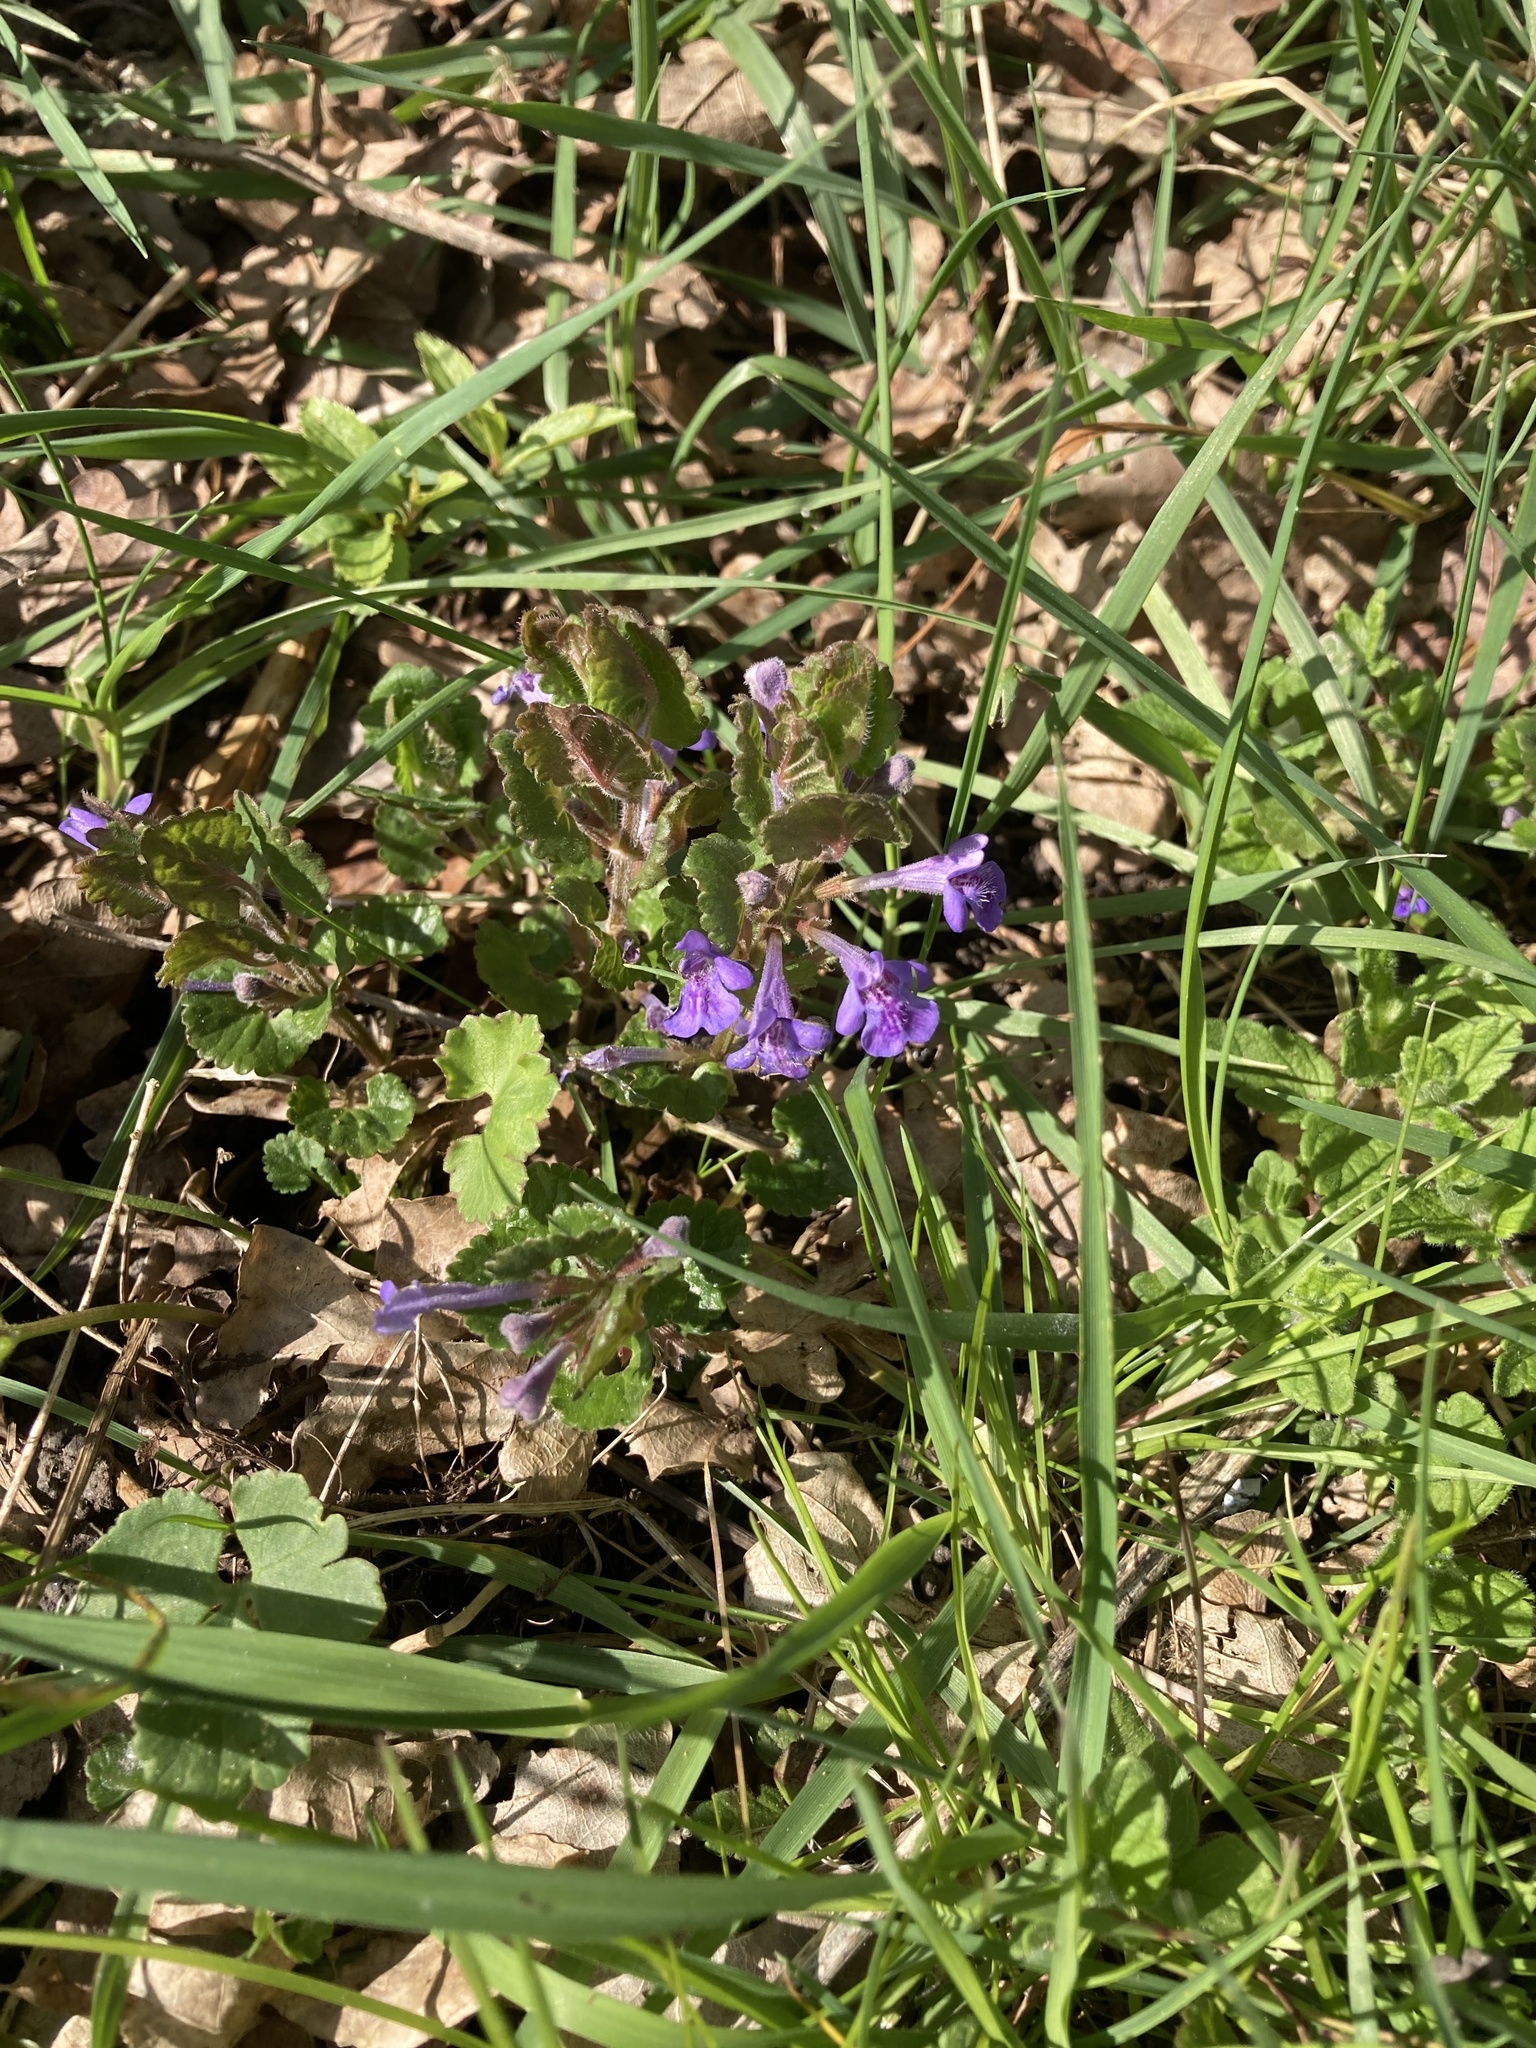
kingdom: Plantae
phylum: Tracheophyta
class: Magnoliopsida
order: Lamiales
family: Lamiaceae
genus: Glechoma
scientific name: Glechoma hederacea
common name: Ground ivy
